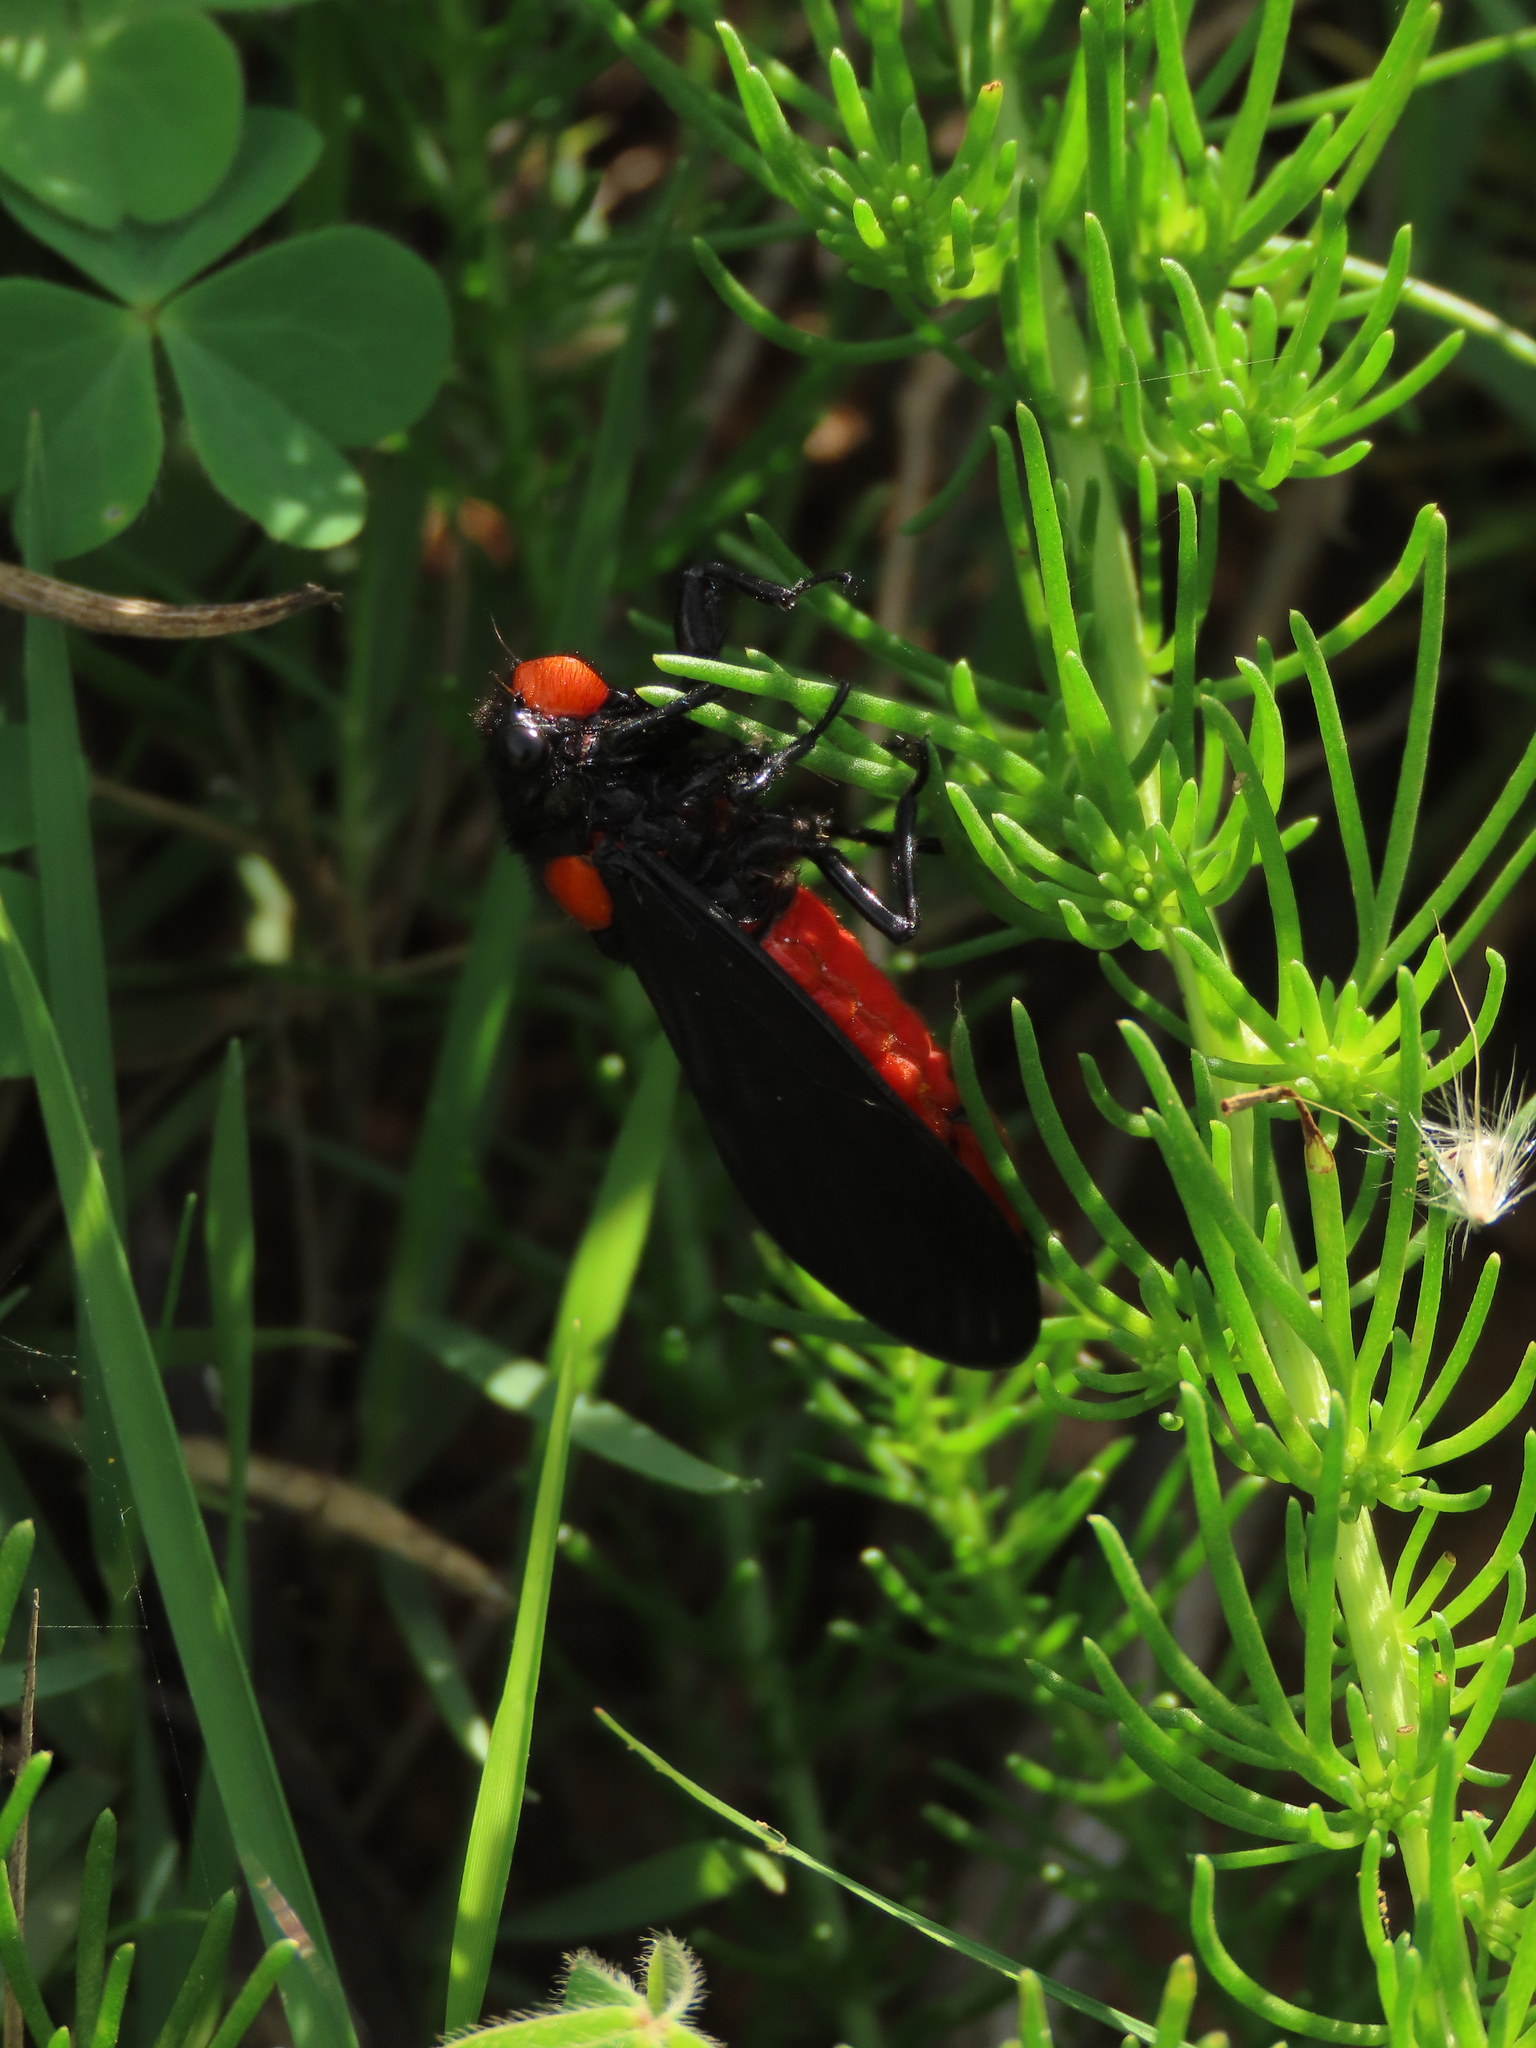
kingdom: Animalia
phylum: Arthropoda
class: Insecta
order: Hemiptera
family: Cicadidae
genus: Huechys
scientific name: Huechys sanguinea
